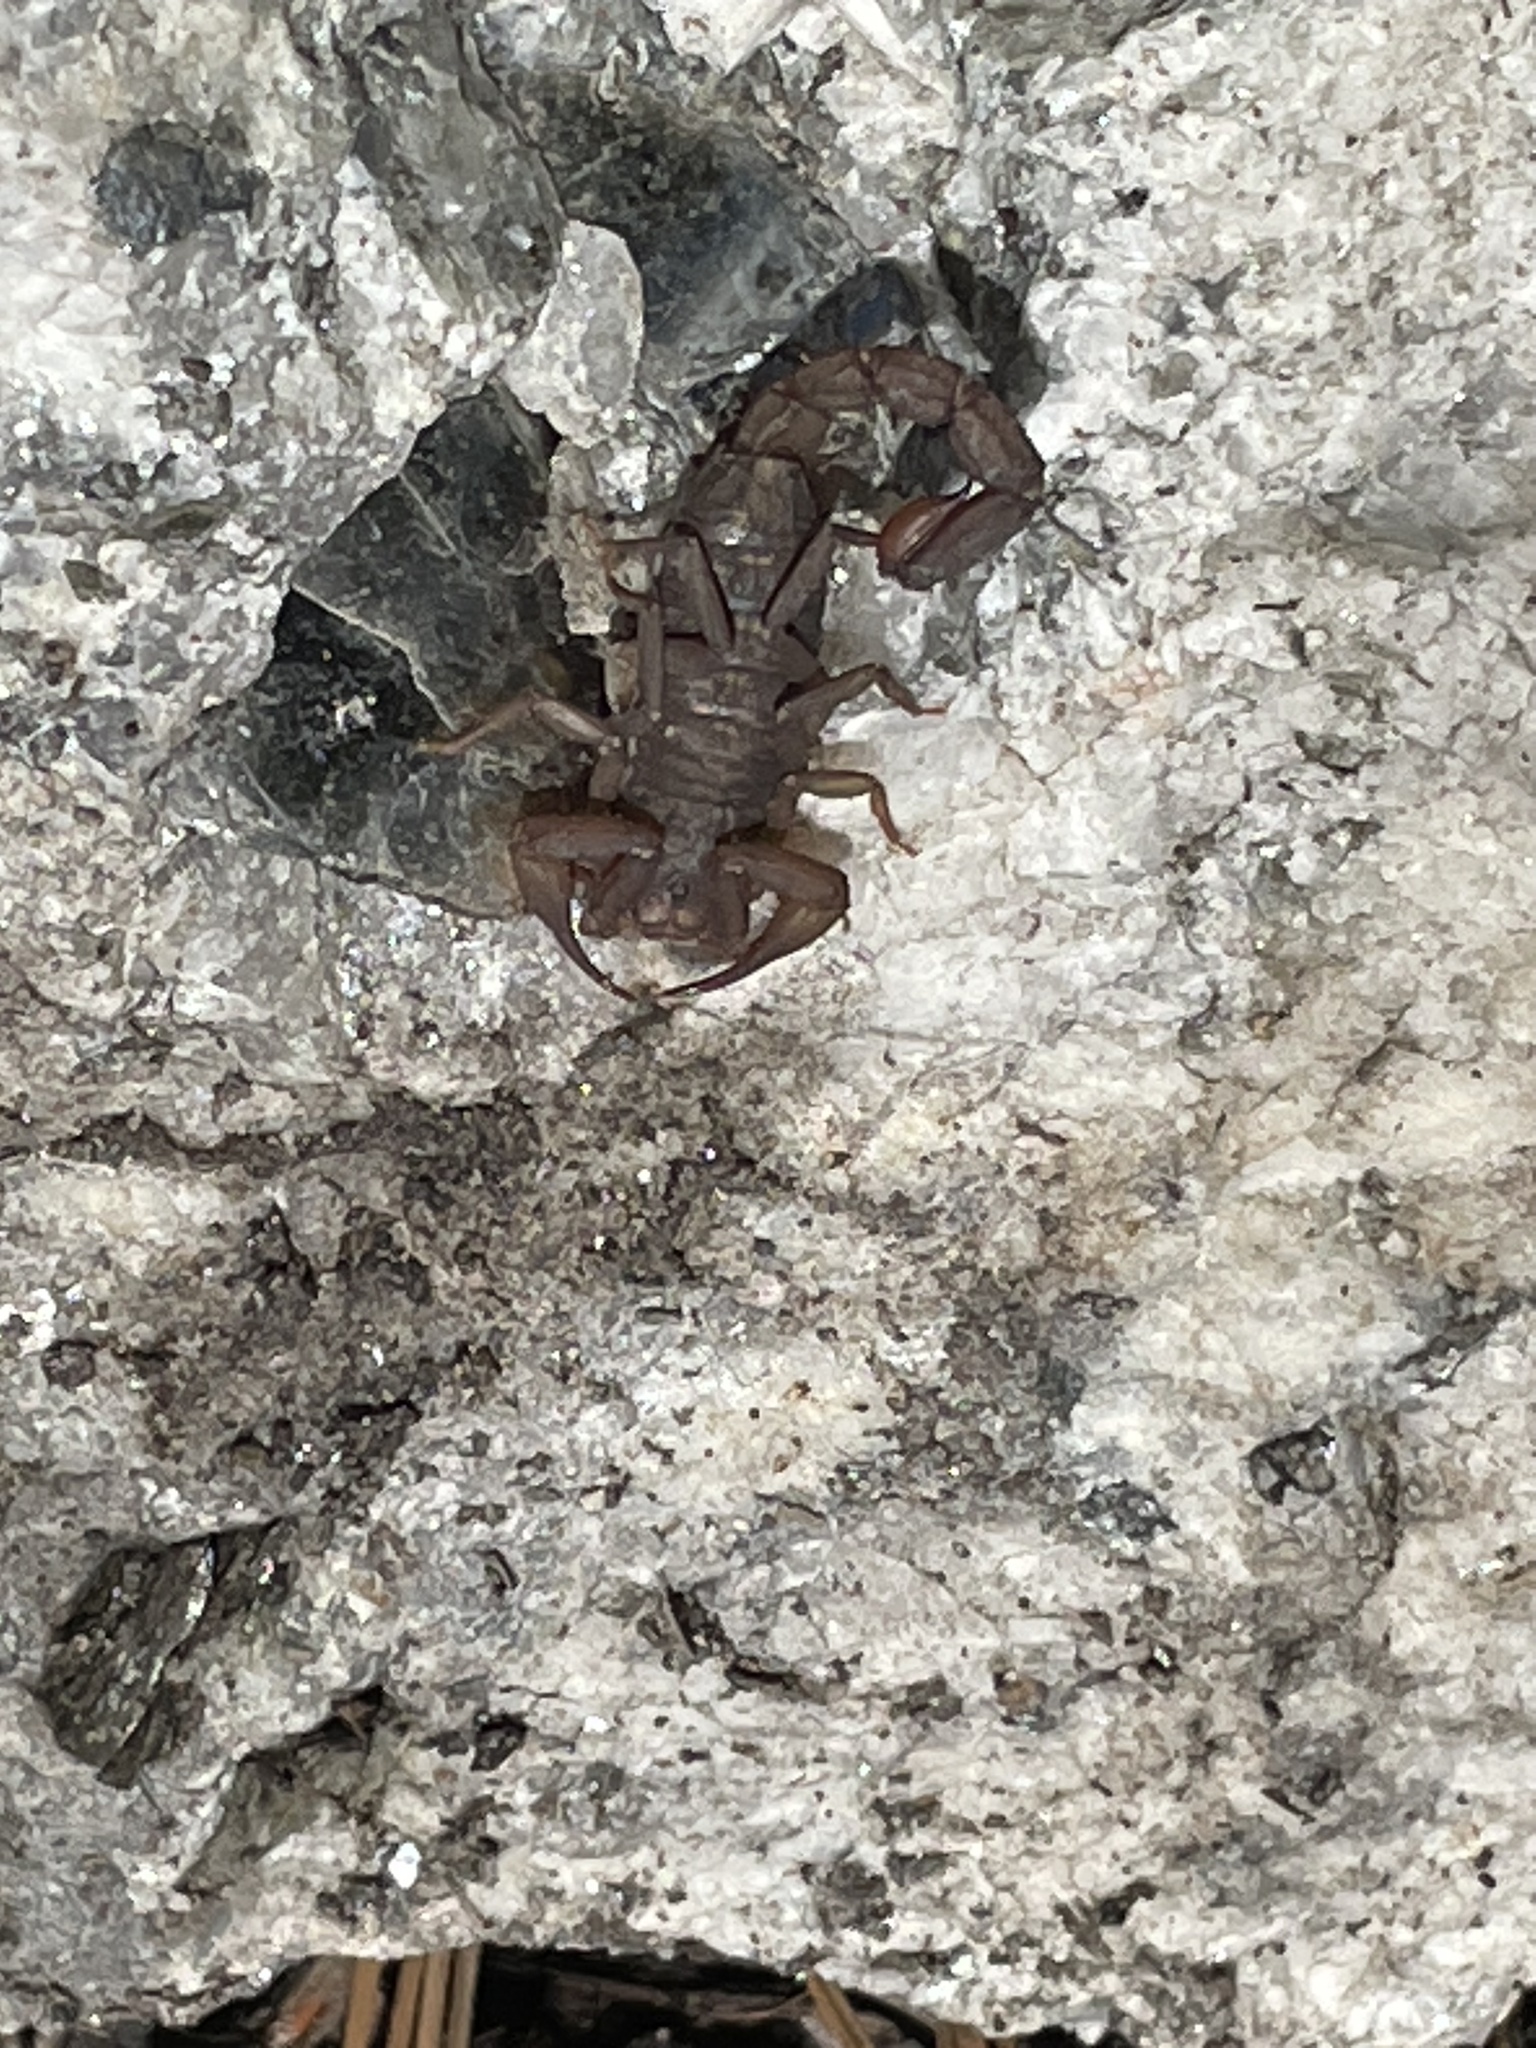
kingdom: Animalia
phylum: Arthropoda
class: Arachnida
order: Scorpiones
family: Vaejovidae
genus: Vaejovis
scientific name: Vaejovis deboerae
